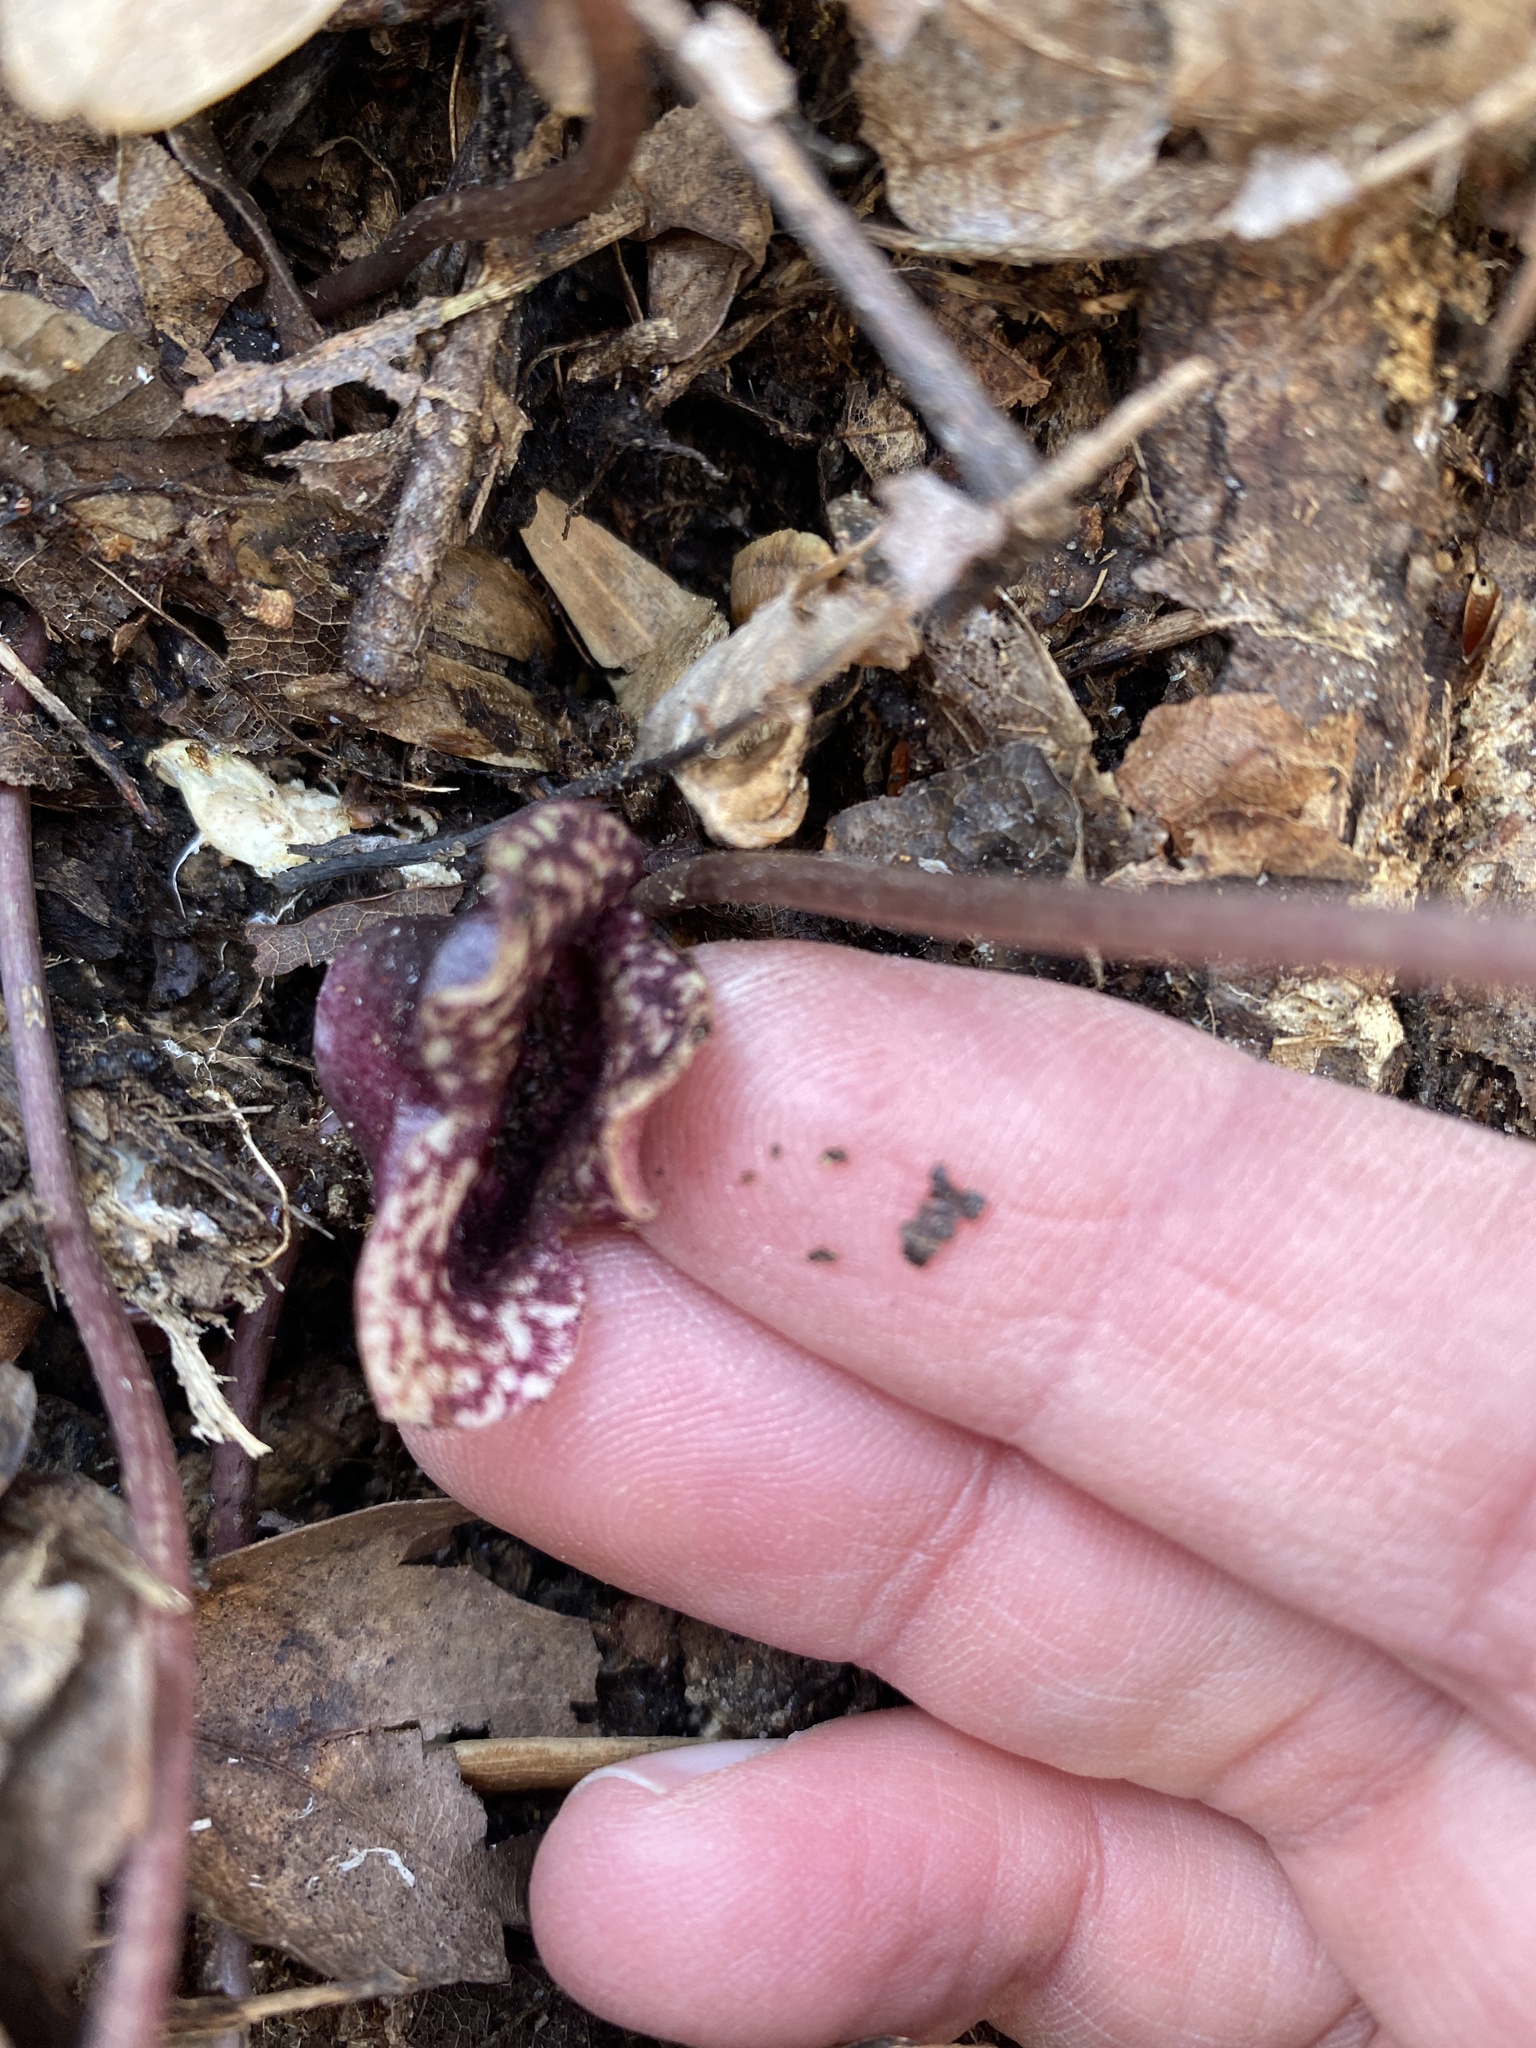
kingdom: Plantae
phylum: Tracheophyta
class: Magnoliopsida
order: Piperales
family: Aristolochiaceae
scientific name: Aristolochiaceae
